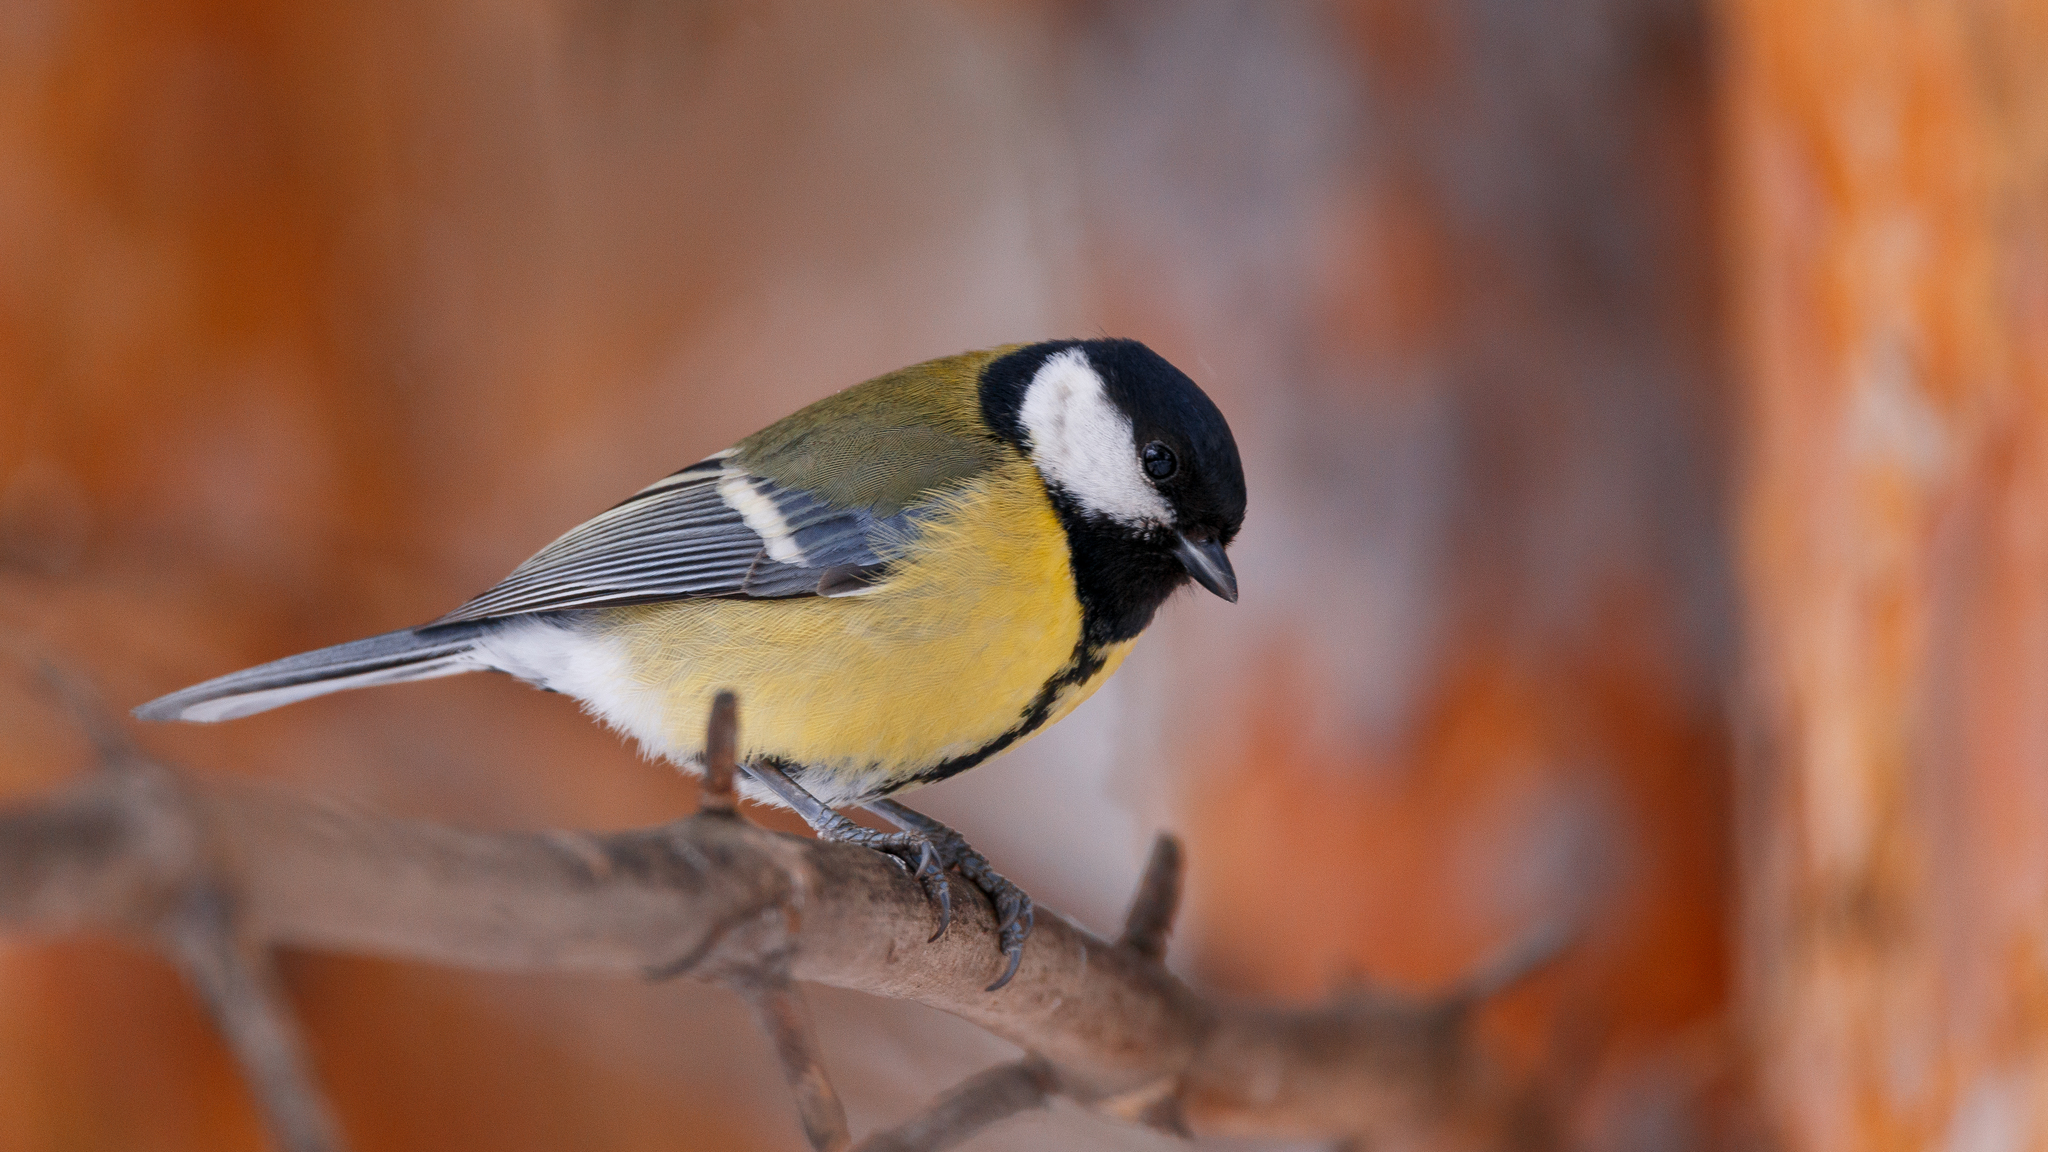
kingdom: Animalia
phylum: Chordata
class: Aves
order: Passeriformes
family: Paridae
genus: Parus
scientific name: Parus major
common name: Great tit
